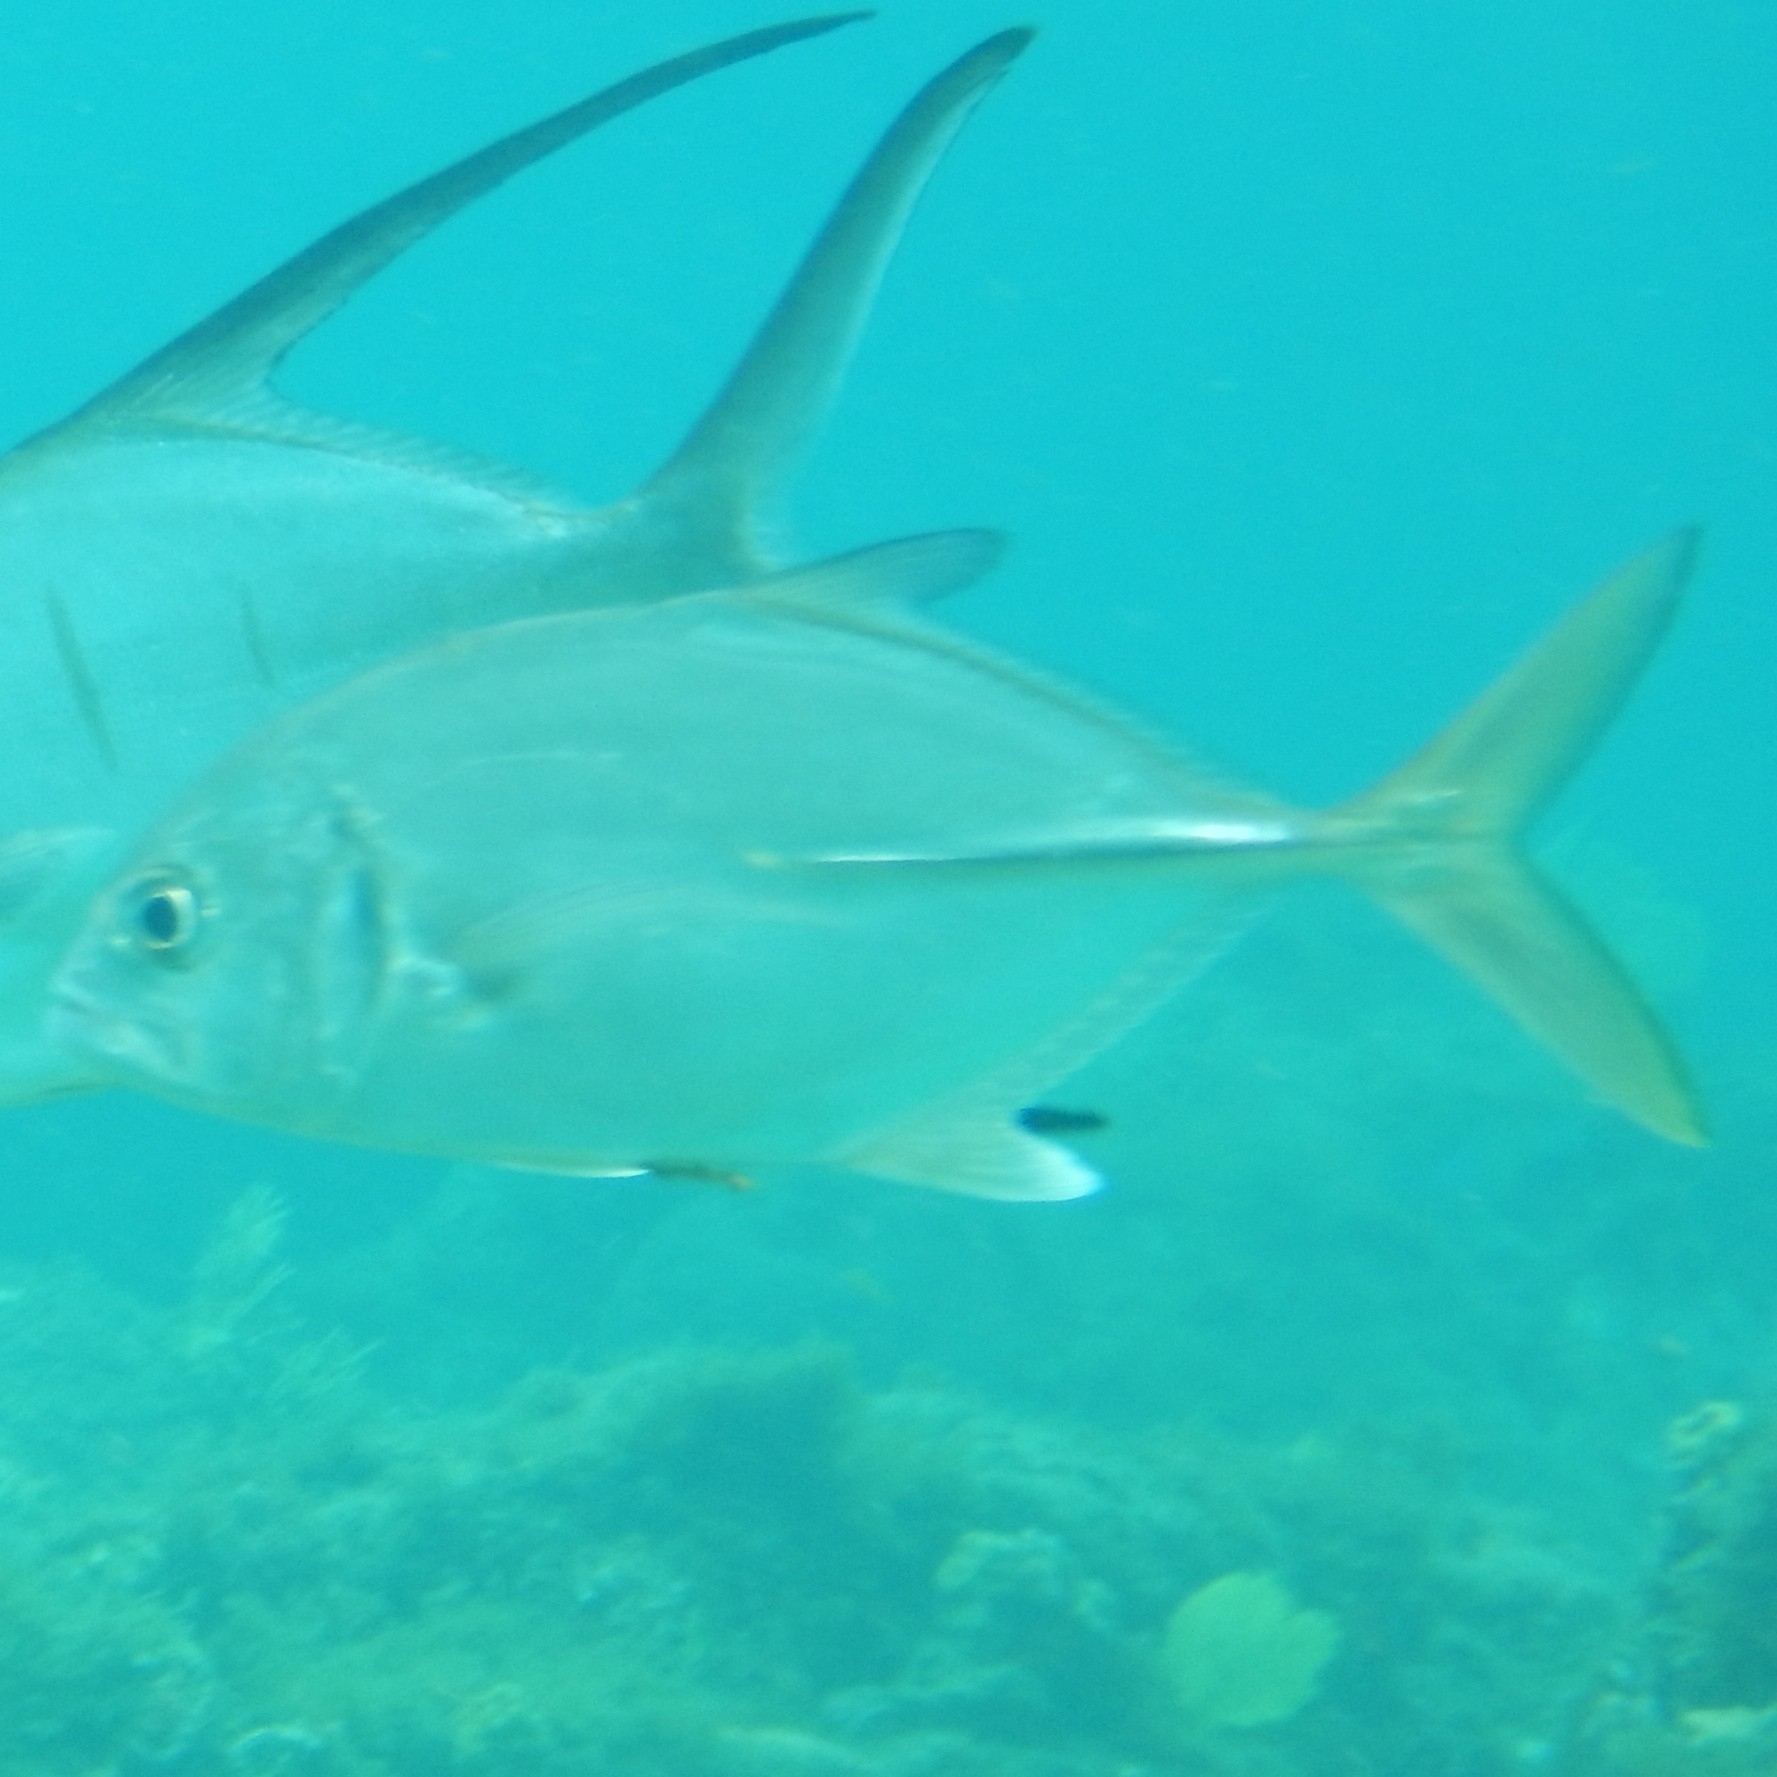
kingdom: Animalia
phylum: Chordata
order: Perciformes
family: Carangidae
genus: Caranx
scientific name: Caranx latus
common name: Horse eye jack
